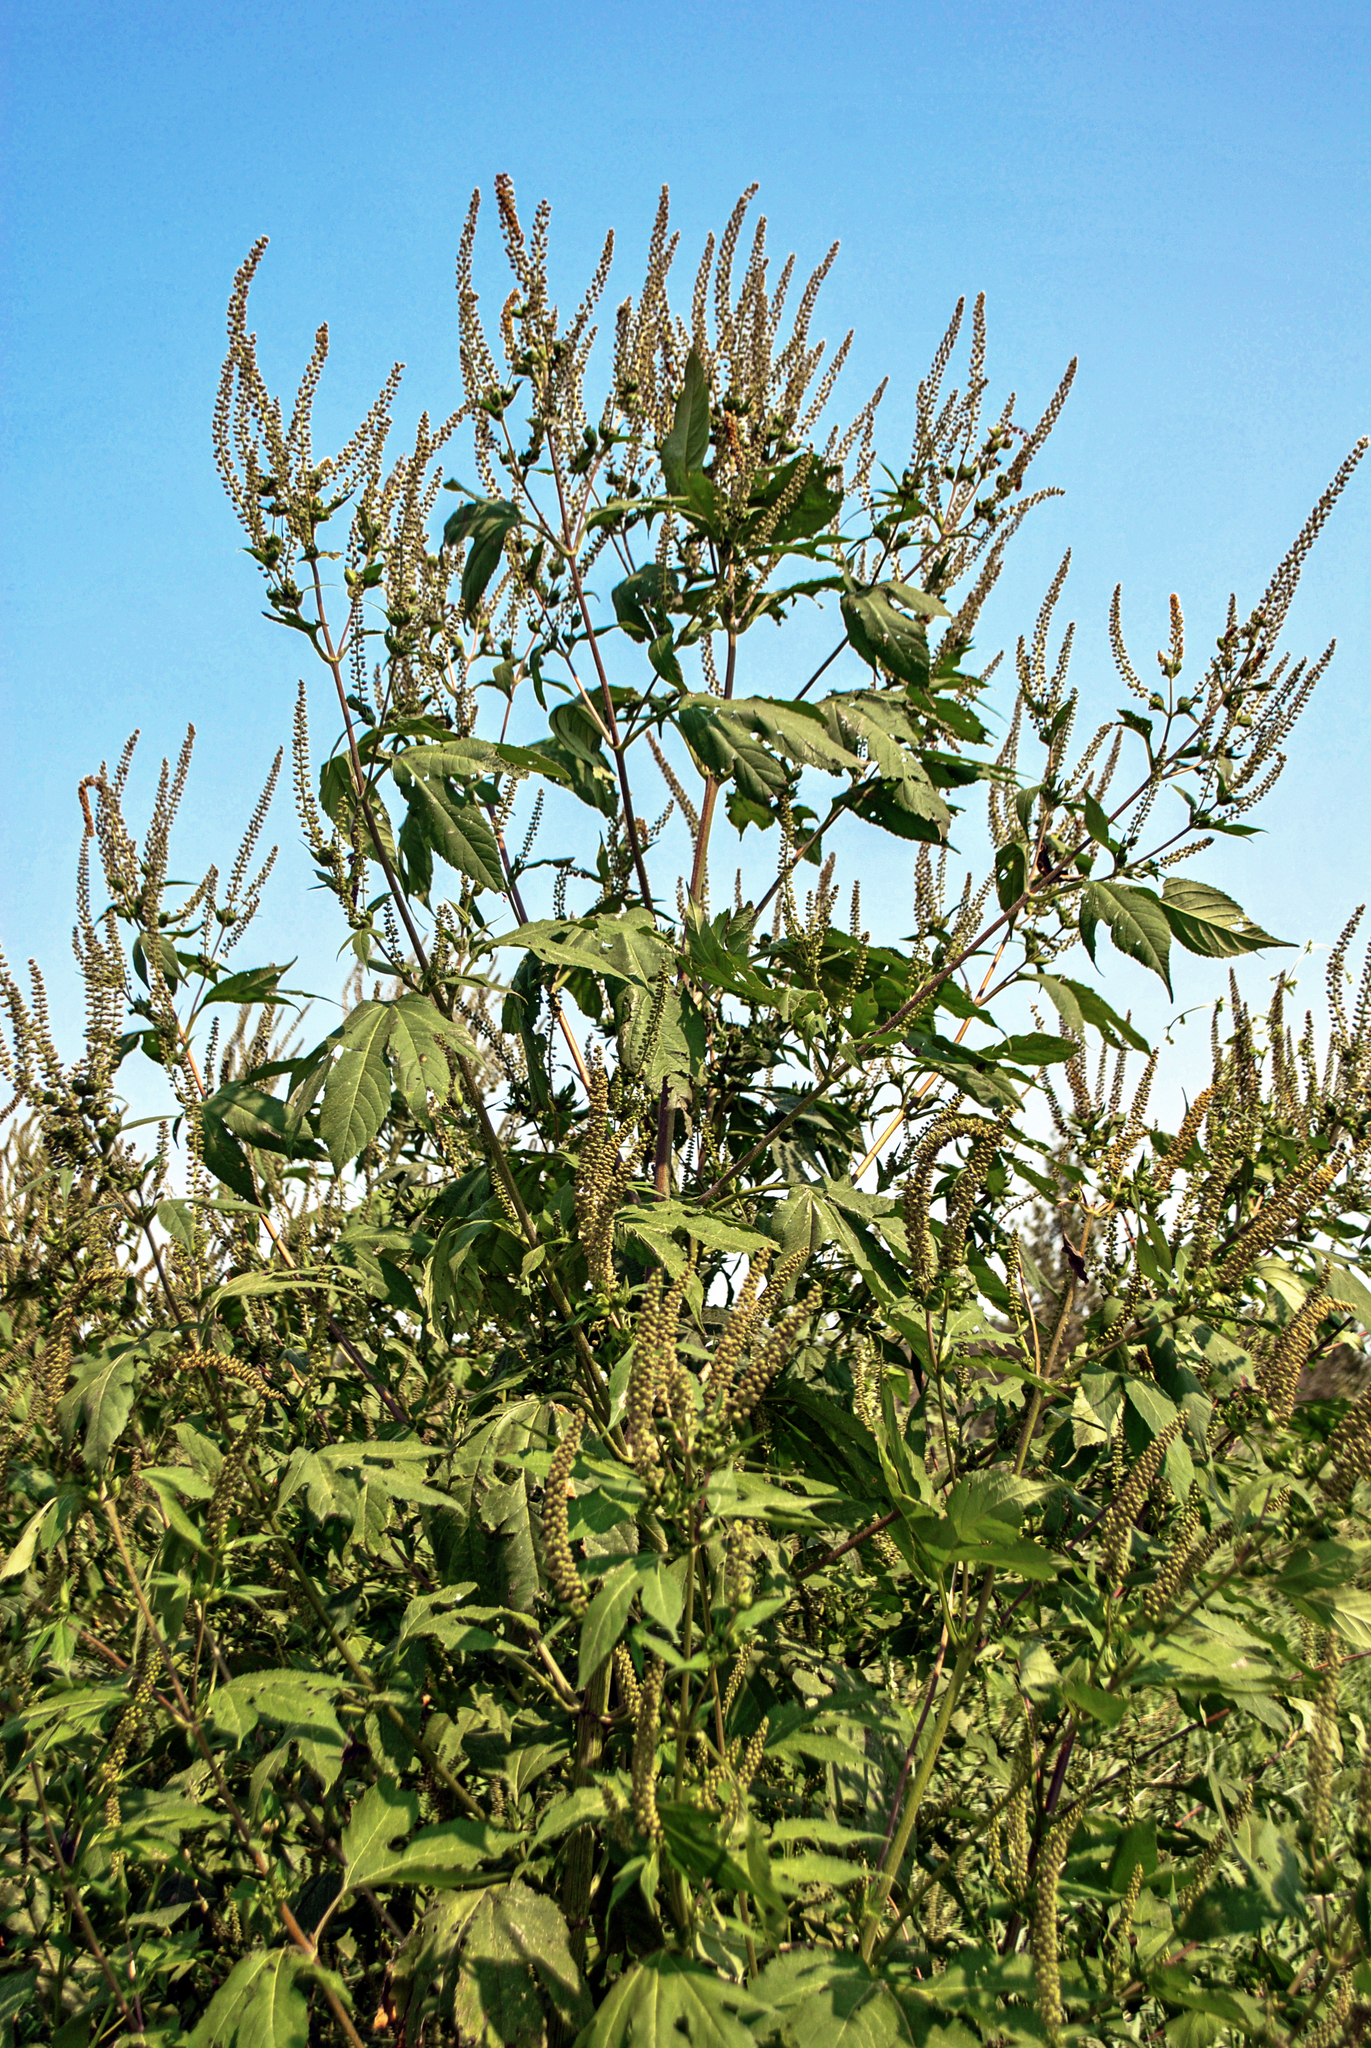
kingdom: Plantae
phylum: Tracheophyta
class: Magnoliopsida
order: Asterales
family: Asteraceae
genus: Ambrosia
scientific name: Ambrosia trifida
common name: Giant ragweed
